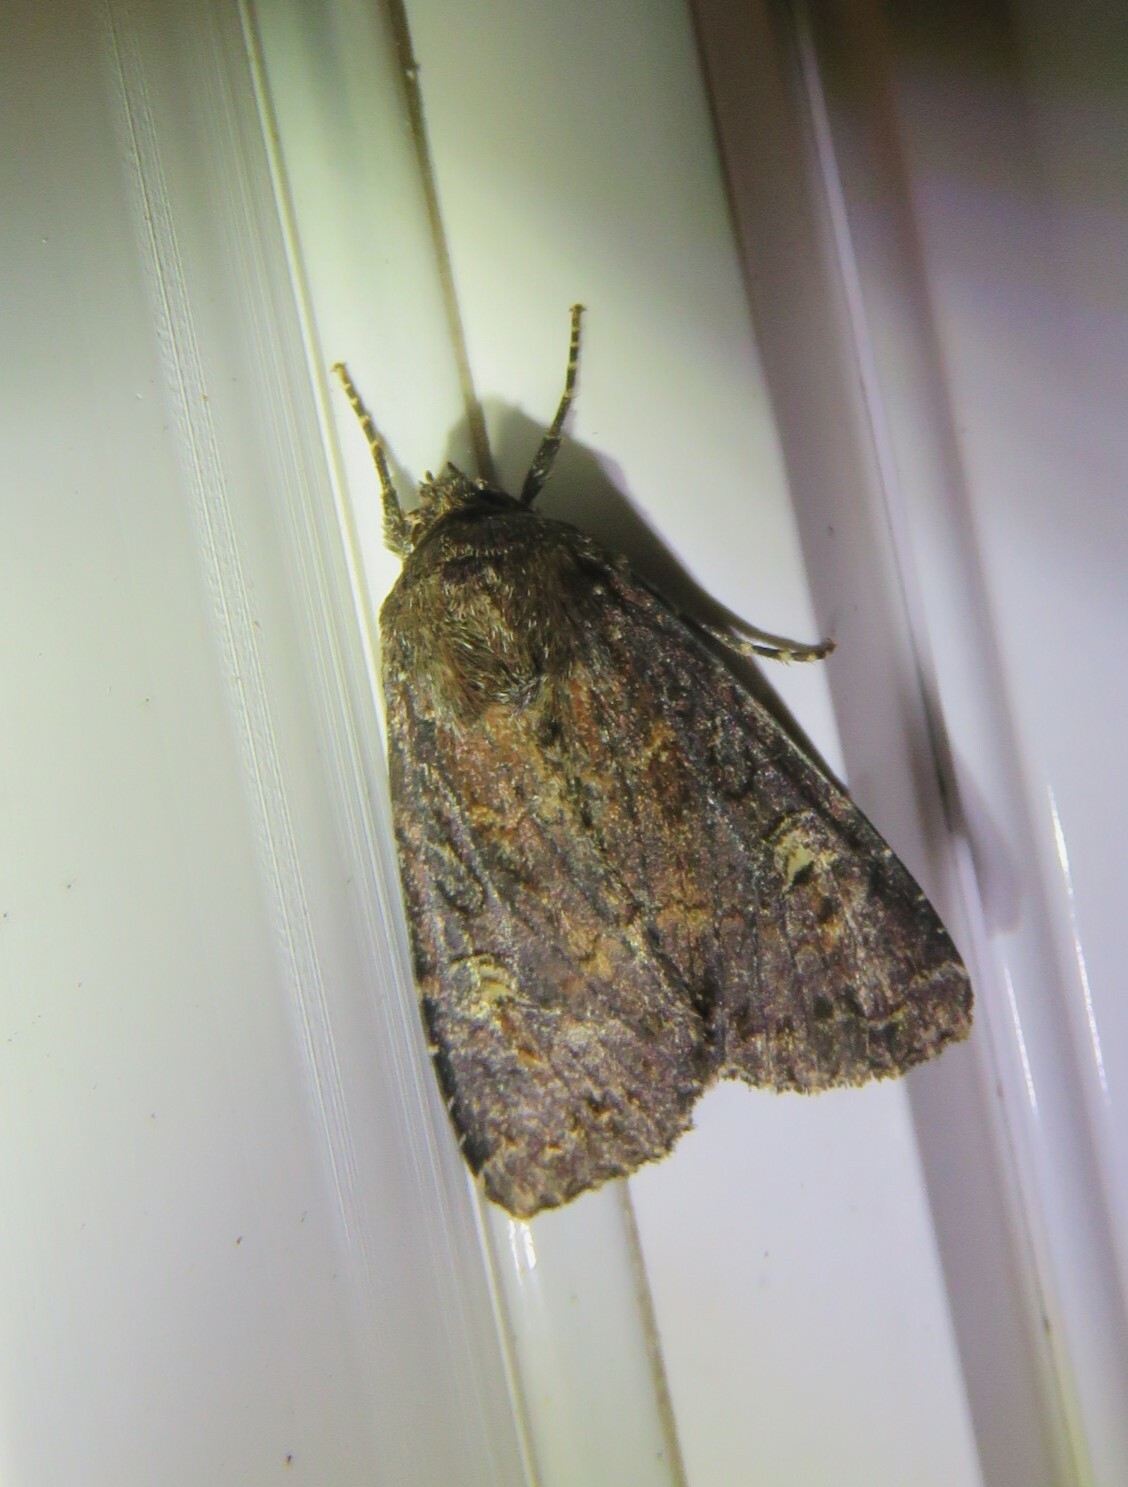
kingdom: Animalia
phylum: Arthropoda
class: Insecta
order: Lepidoptera
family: Noctuidae
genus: Apamea
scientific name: Apamea dubitans
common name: Doubtful apamea moth
